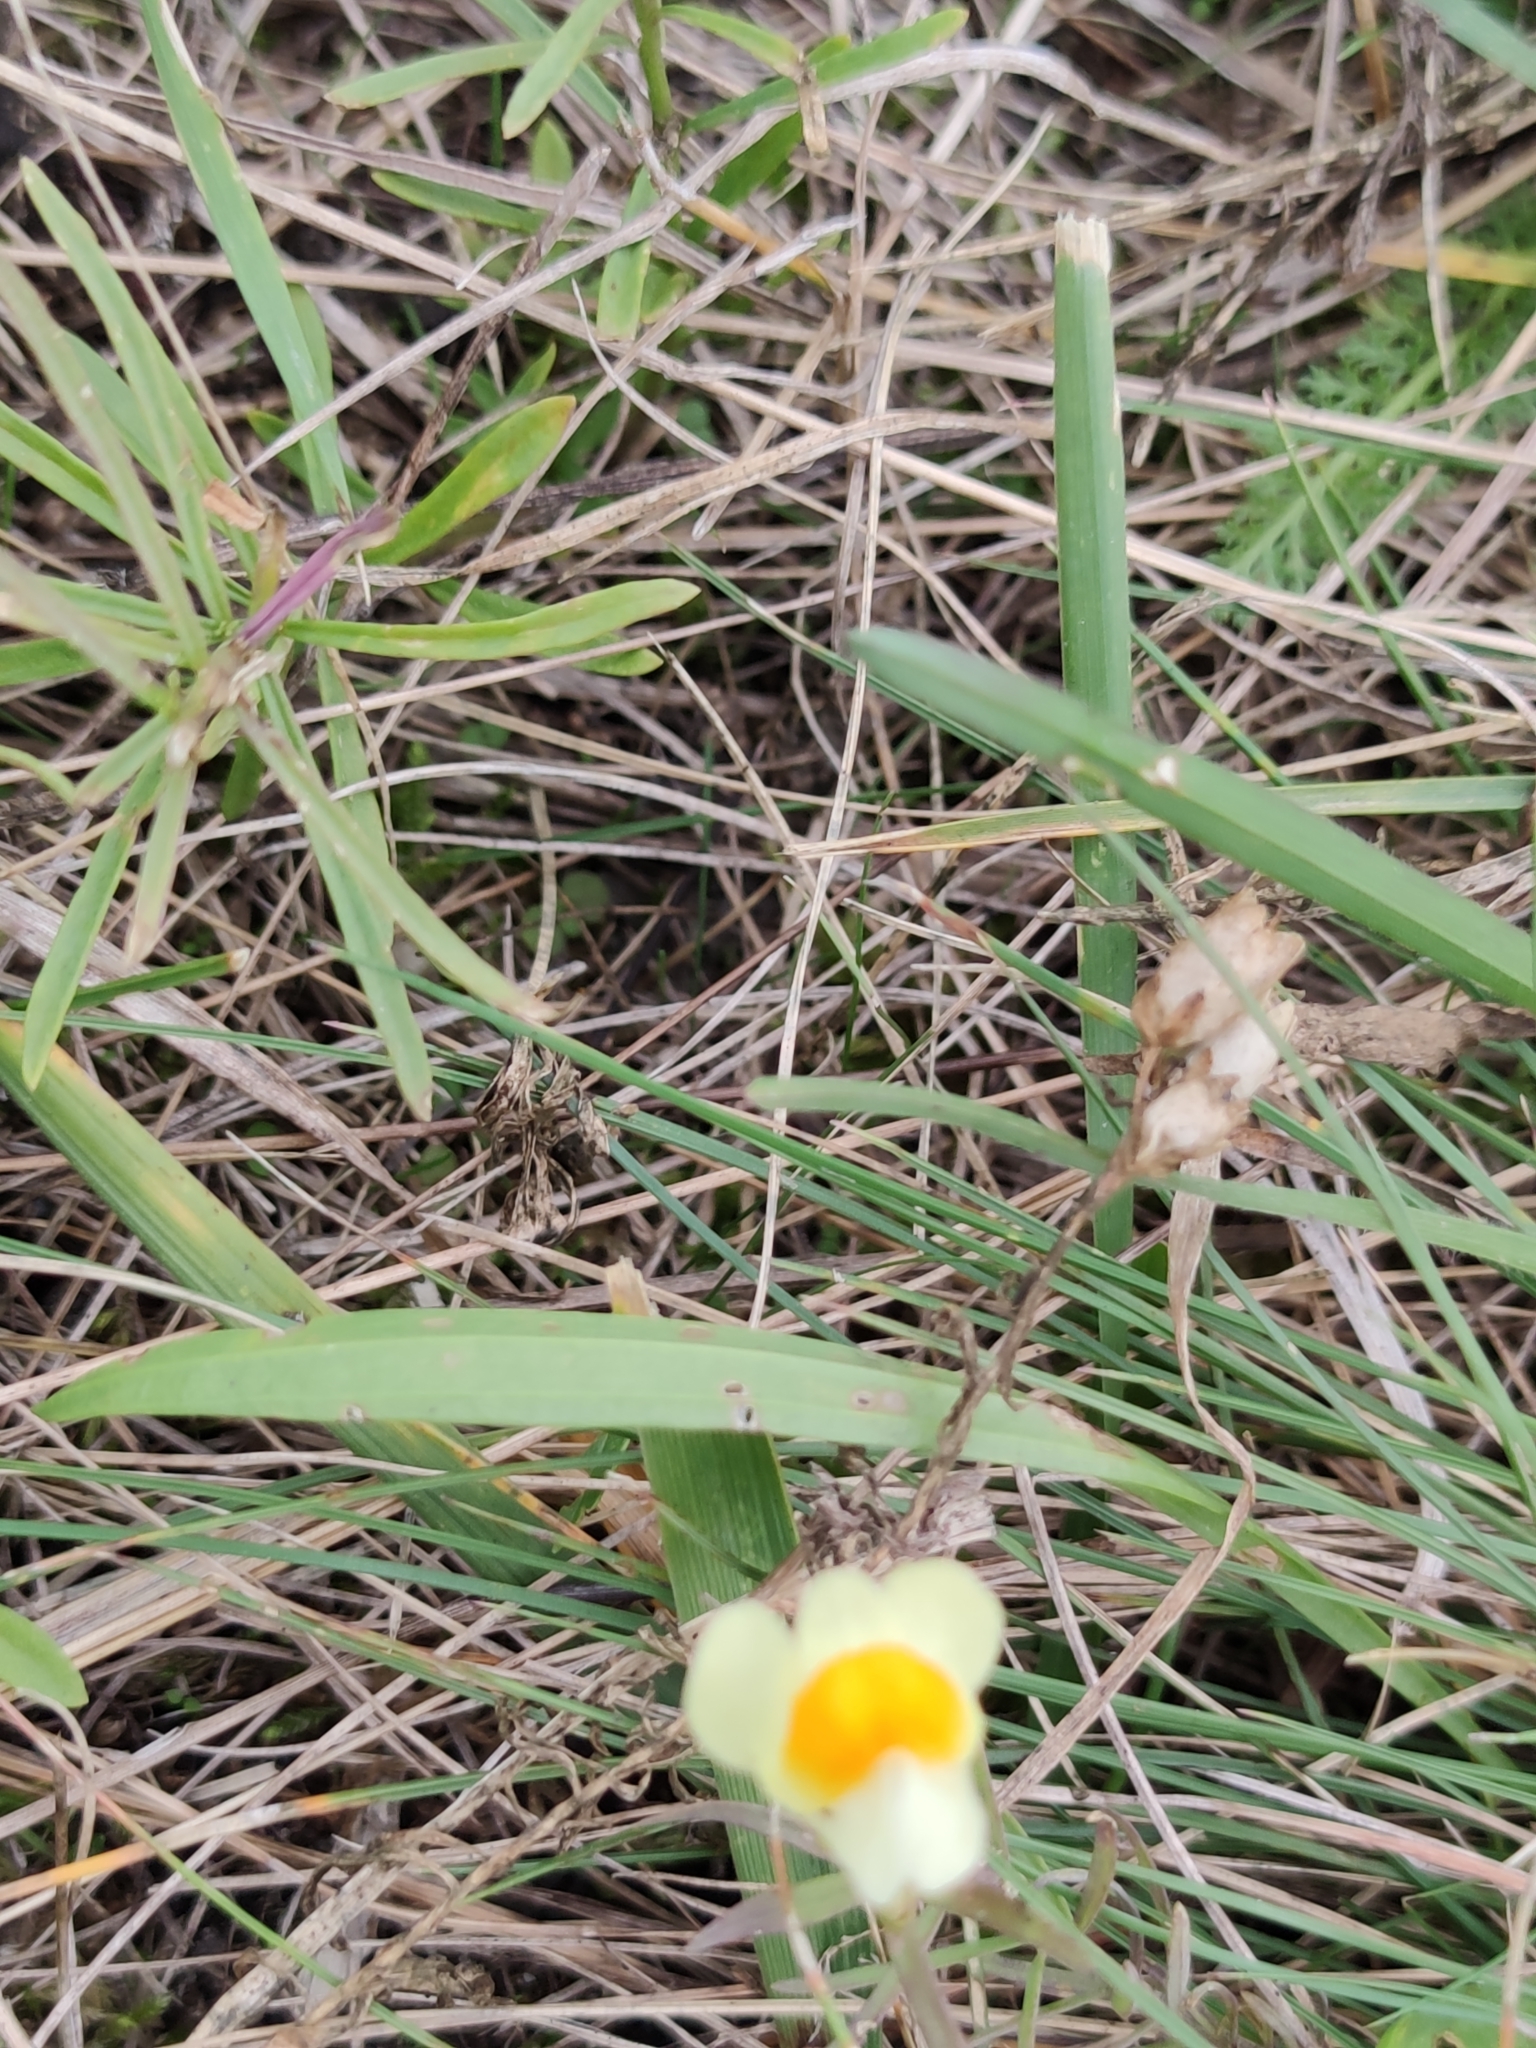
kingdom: Plantae
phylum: Tracheophyta
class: Magnoliopsida
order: Lamiales
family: Plantaginaceae
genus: Linaria
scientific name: Linaria vulgaris
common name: Butter and eggs
